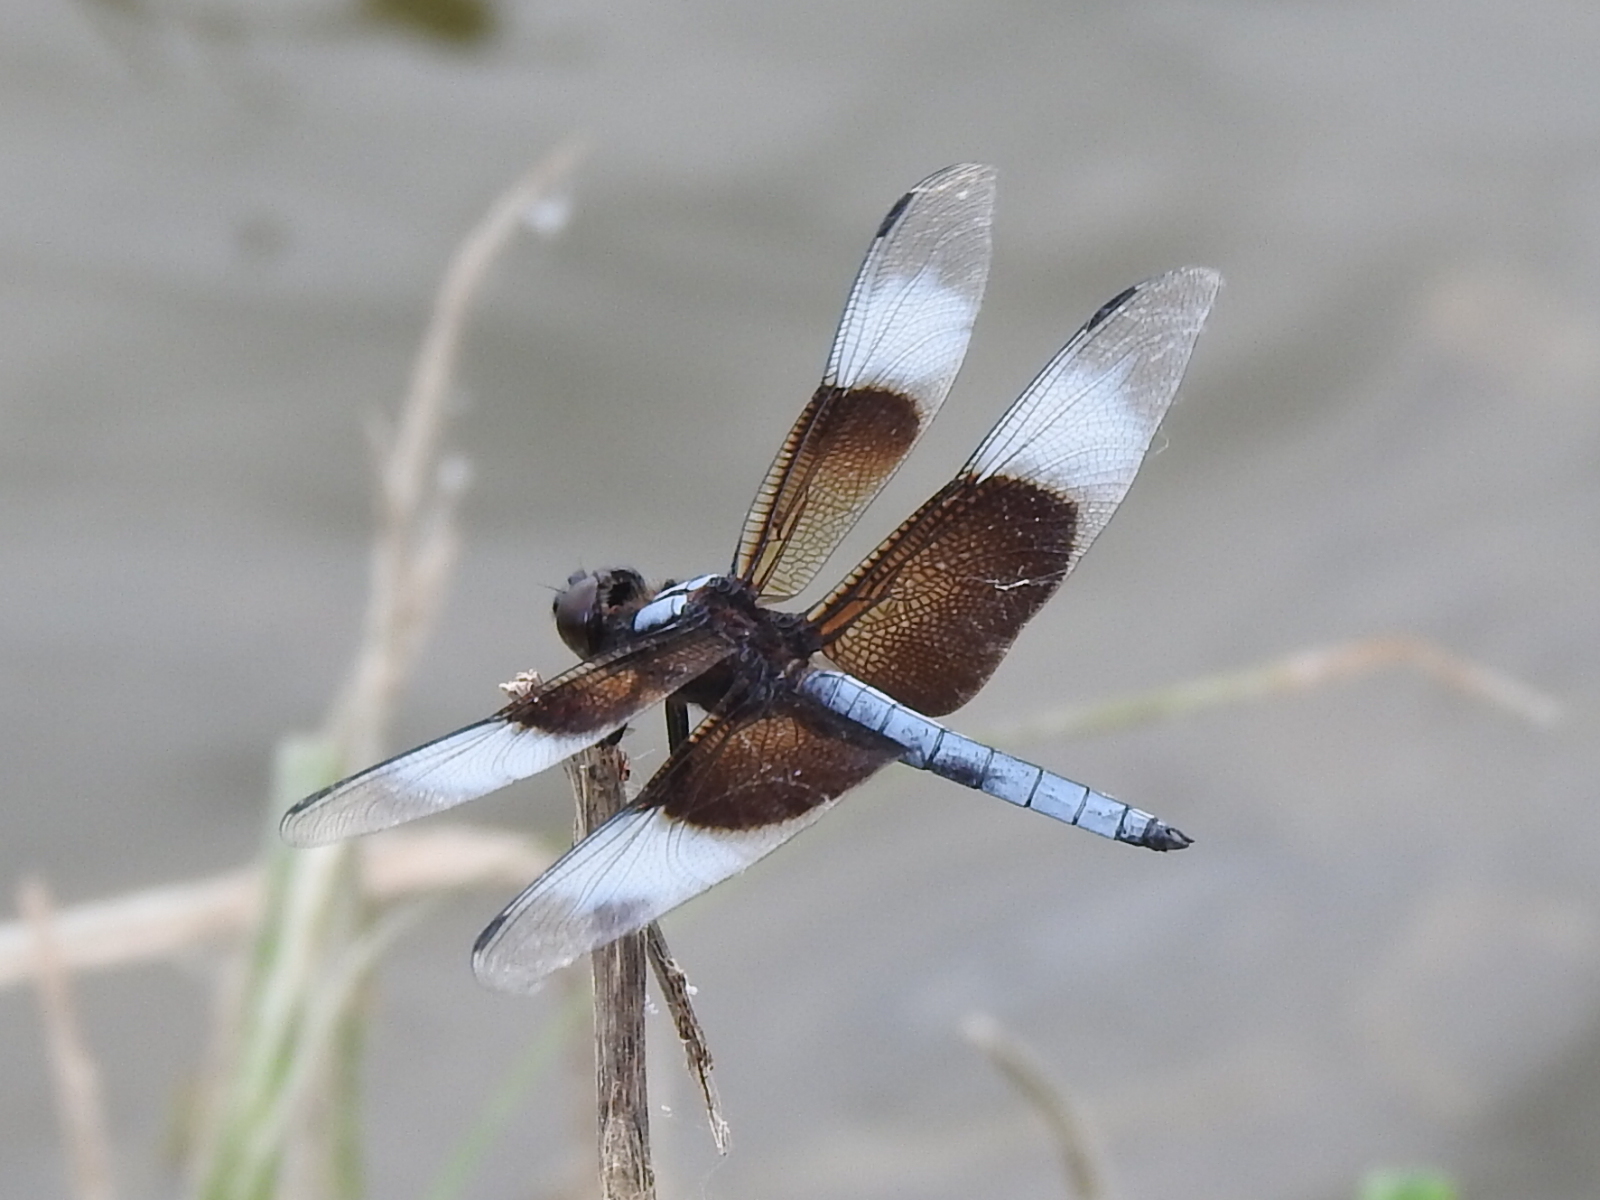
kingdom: Animalia
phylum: Arthropoda
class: Insecta
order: Odonata
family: Libellulidae
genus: Libellula
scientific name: Libellula luctuosa
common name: Widow skimmer
